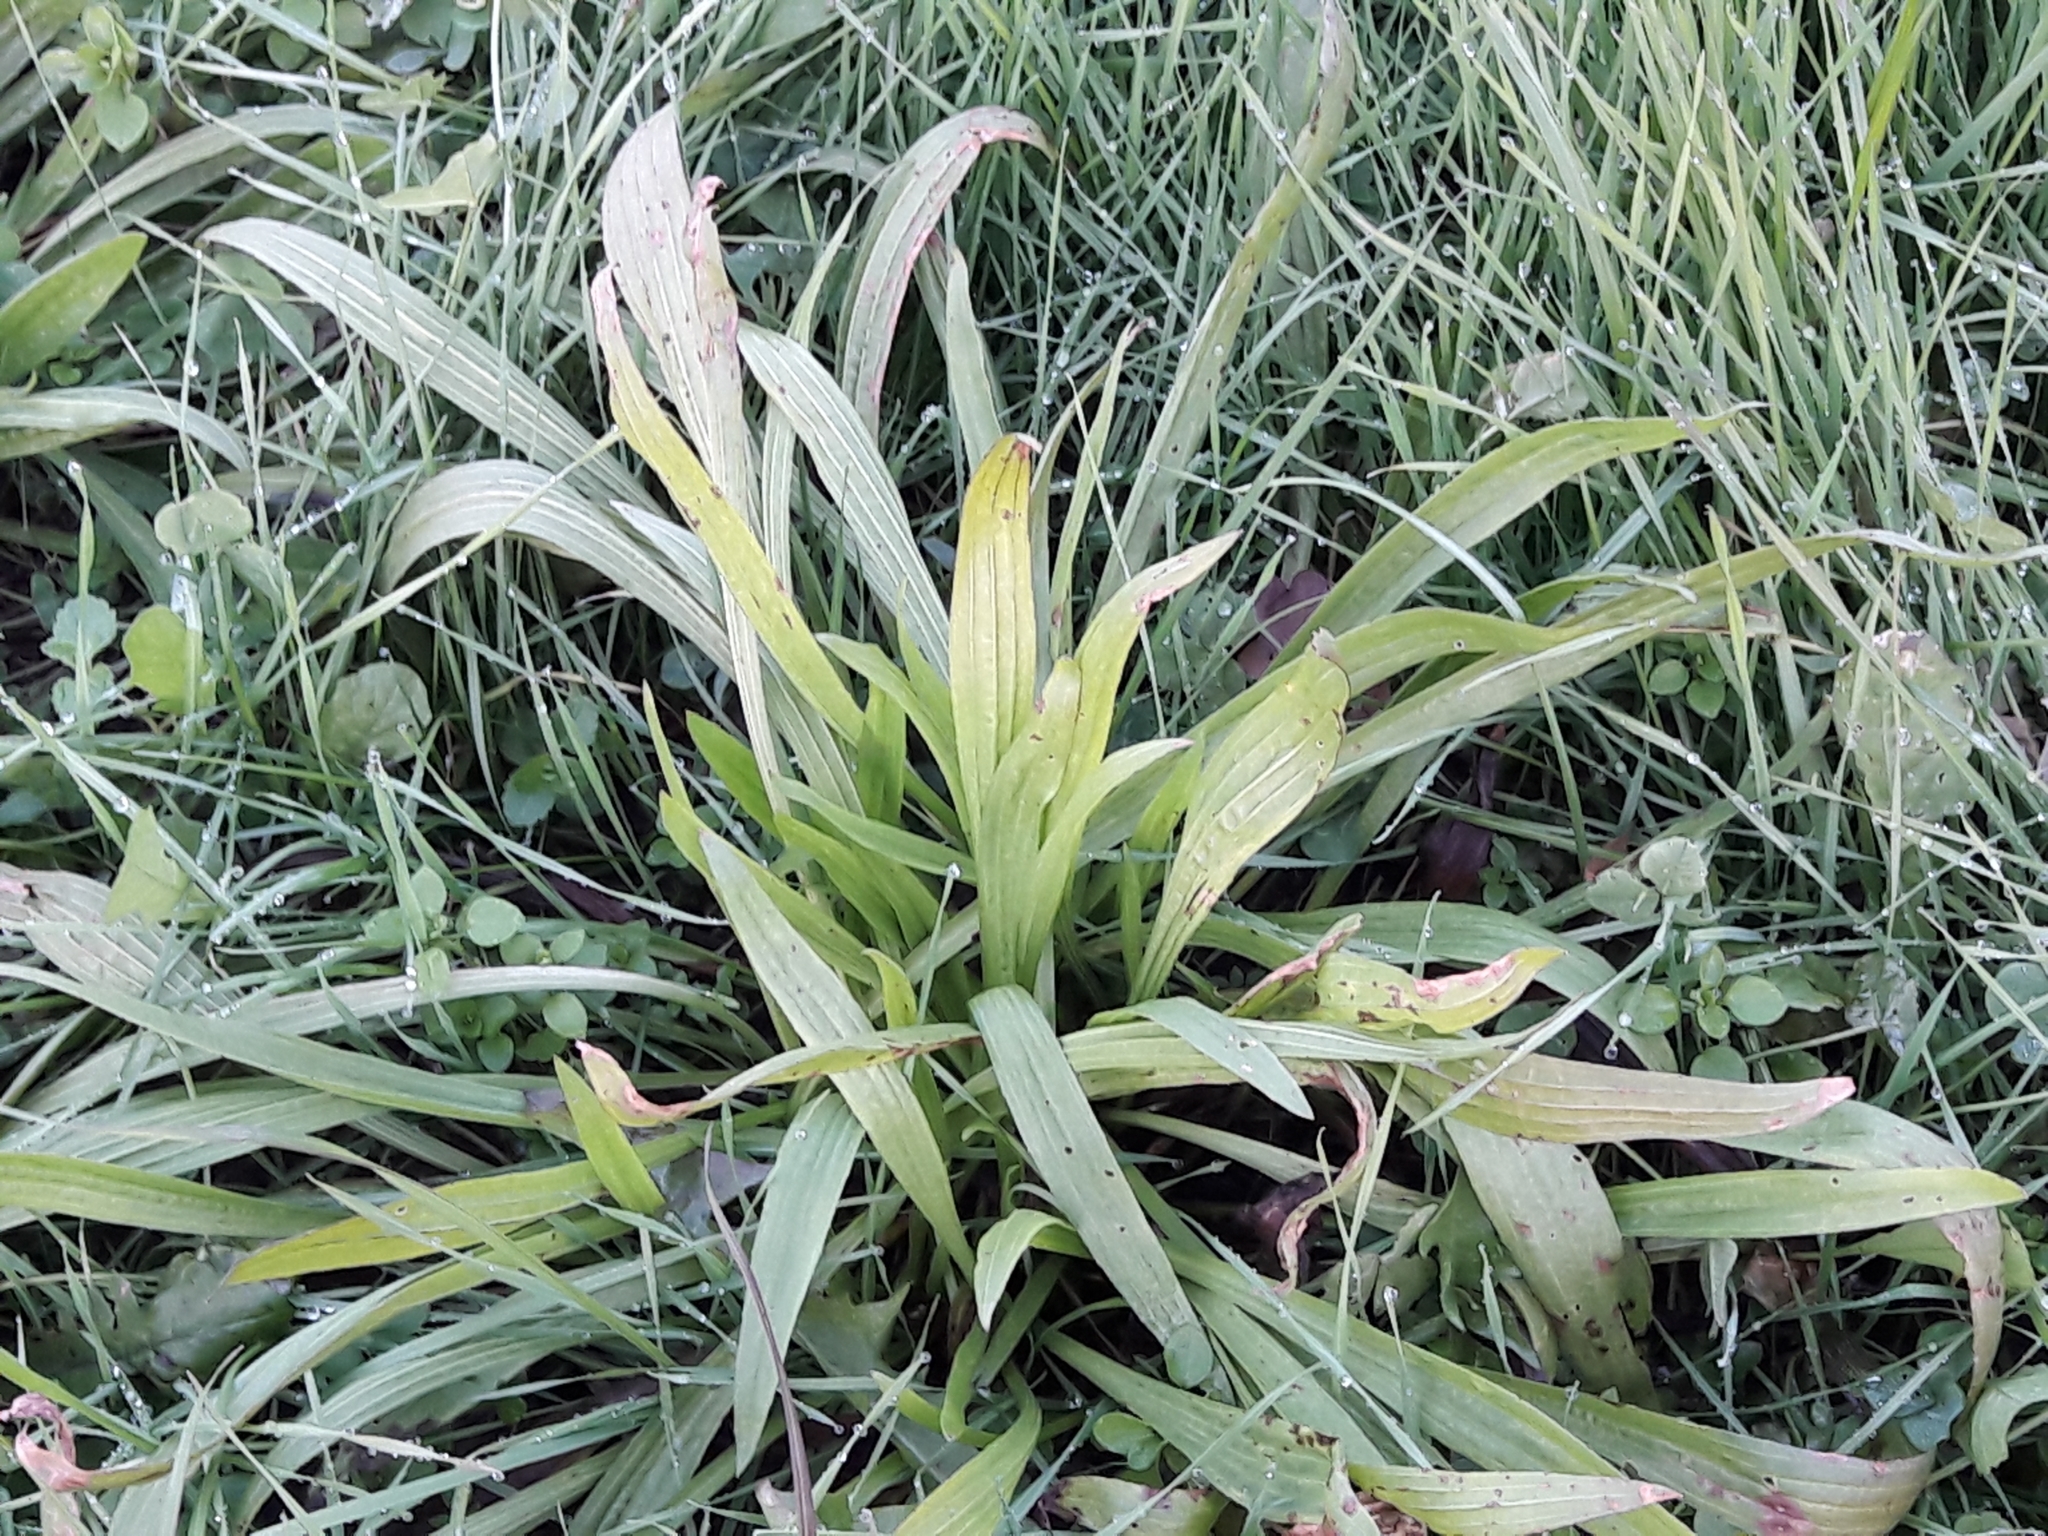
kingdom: Plantae
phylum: Tracheophyta
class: Magnoliopsida
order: Lamiales
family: Plantaginaceae
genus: Plantago
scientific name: Plantago lanceolata
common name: Ribwort plantain
